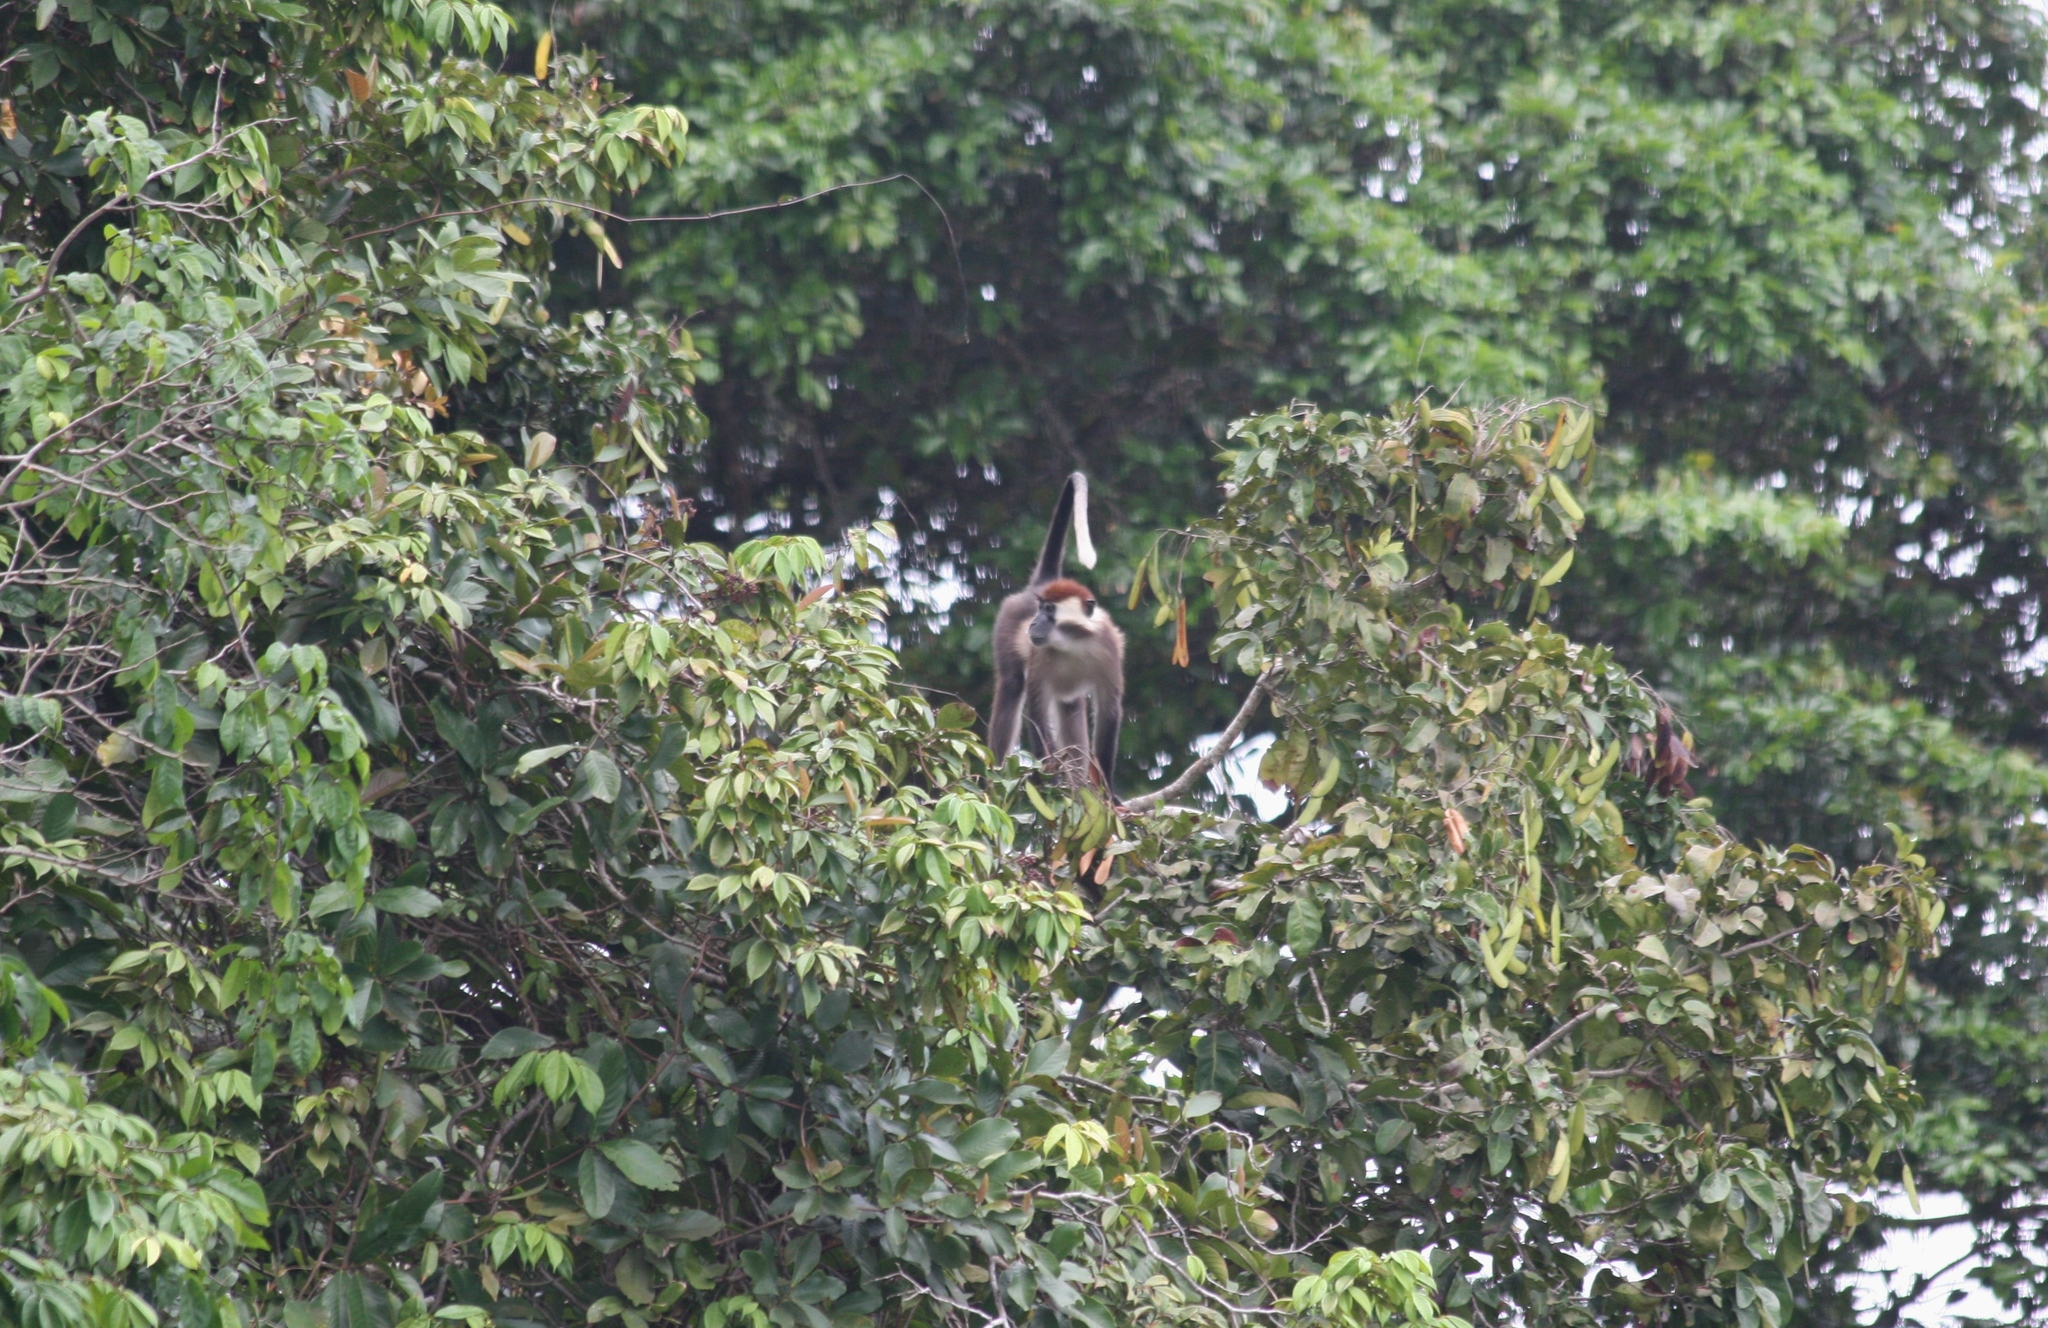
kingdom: Animalia
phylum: Chordata
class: Mammalia
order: Primates
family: Cercopithecidae
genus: Cercocebus
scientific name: Cercocebus torquatus
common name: Collared mangabey
